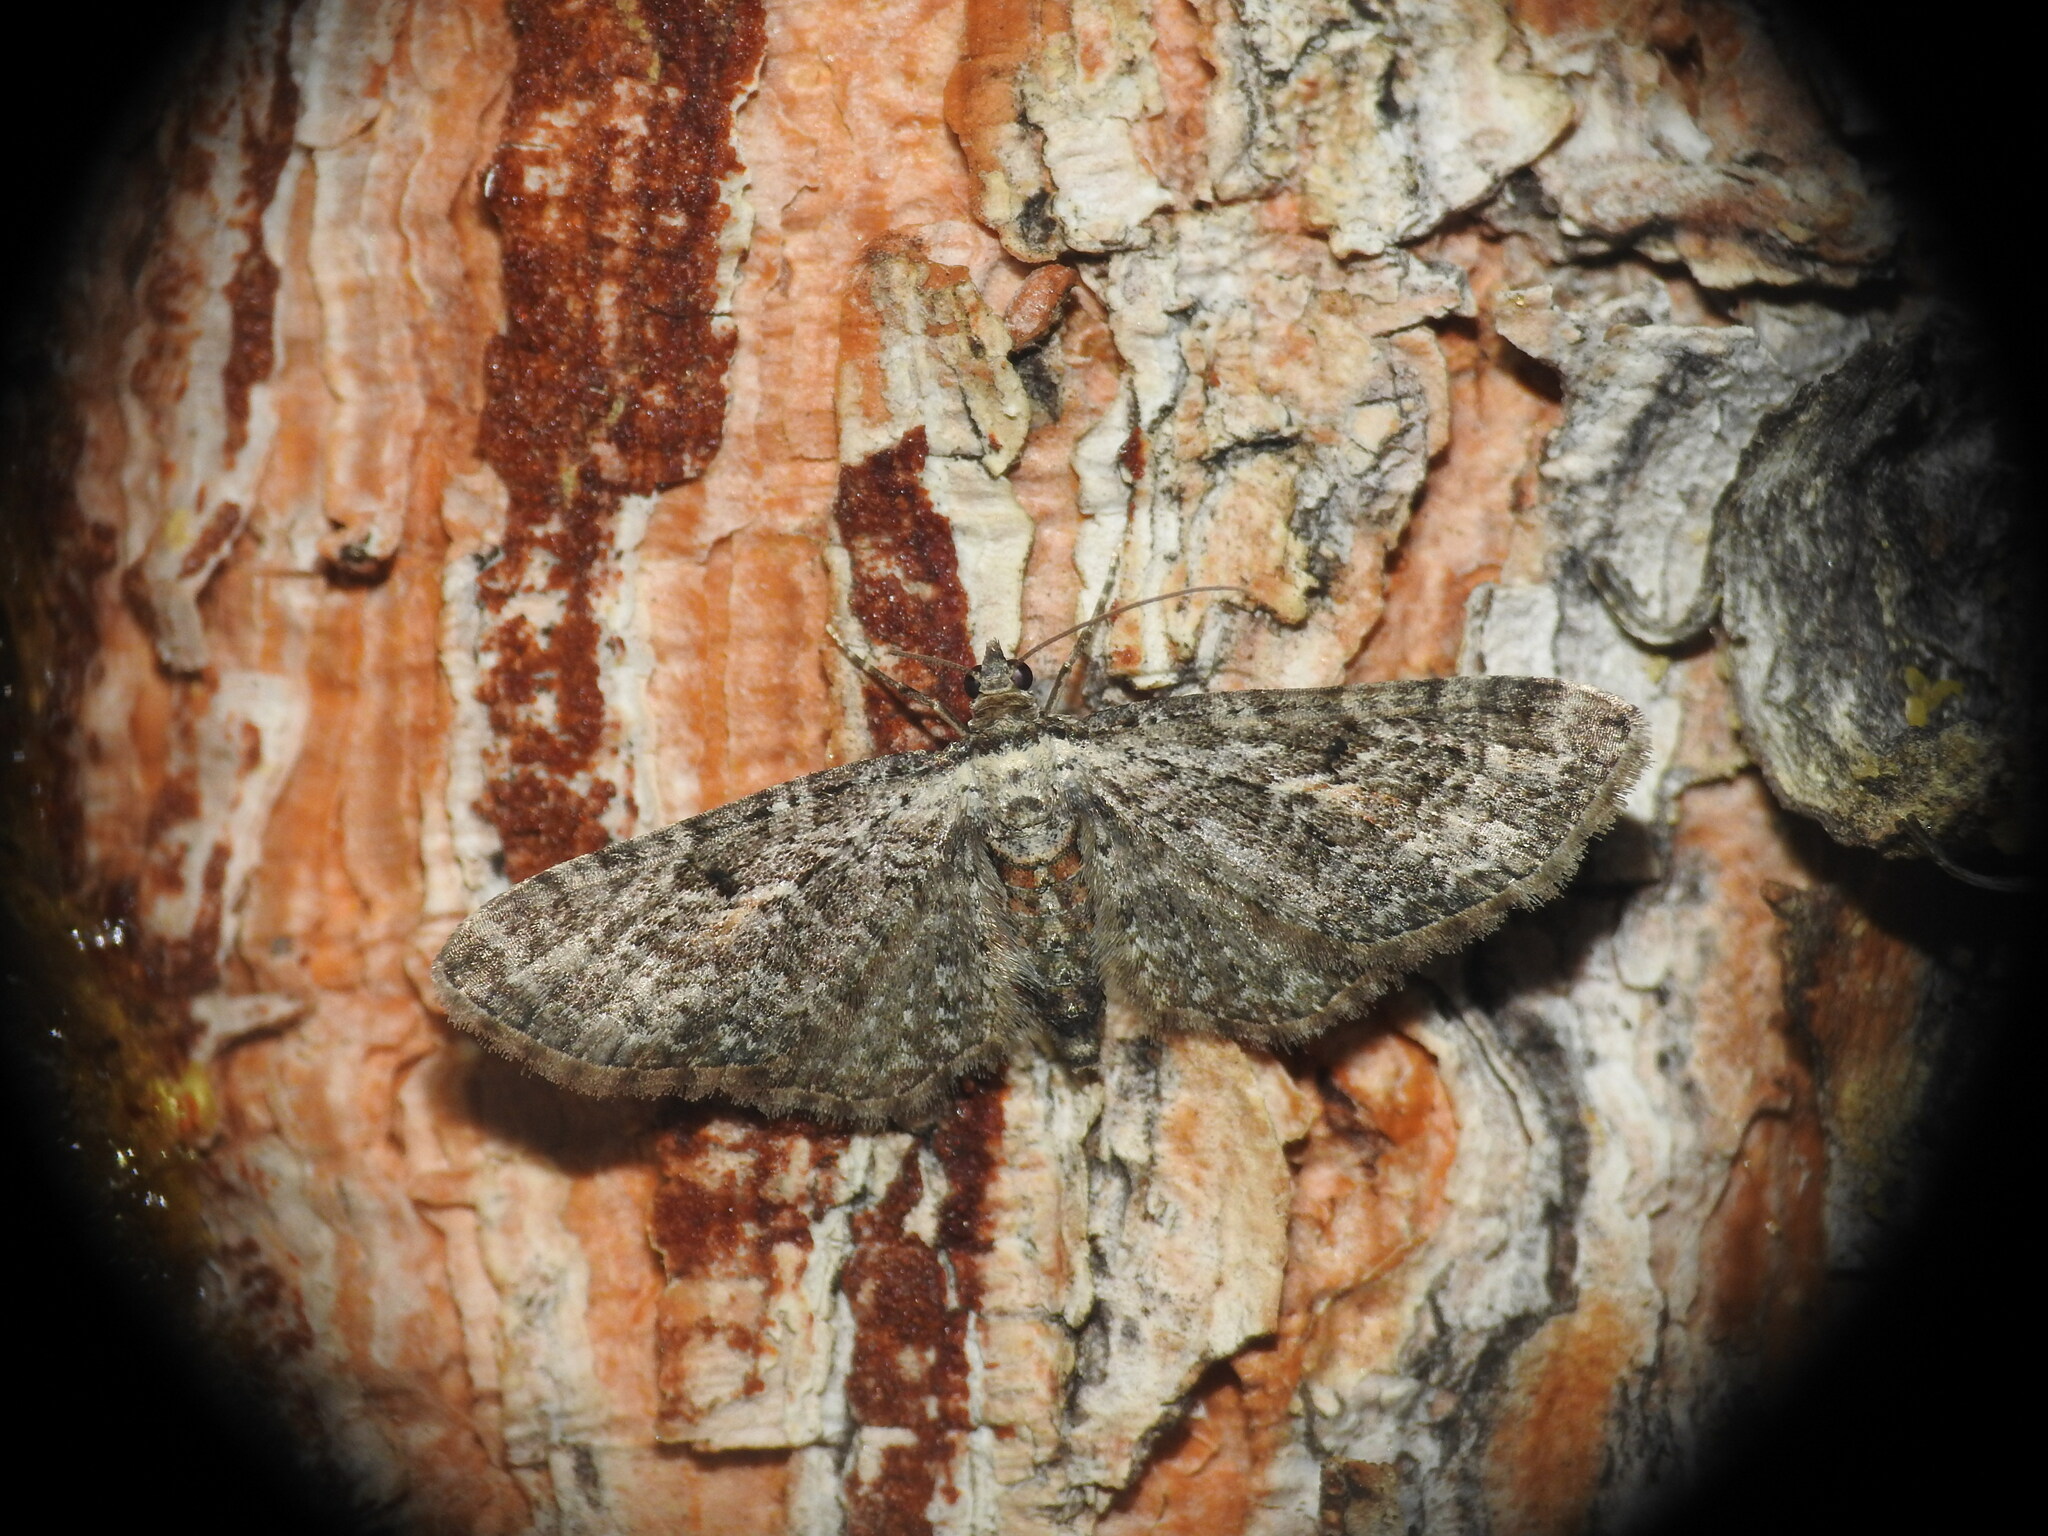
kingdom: Animalia
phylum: Arthropoda
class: Insecta
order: Lepidoptera
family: Geometridae
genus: Eupithecia
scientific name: Eupithecia icterata
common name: Tawny speckled pug
